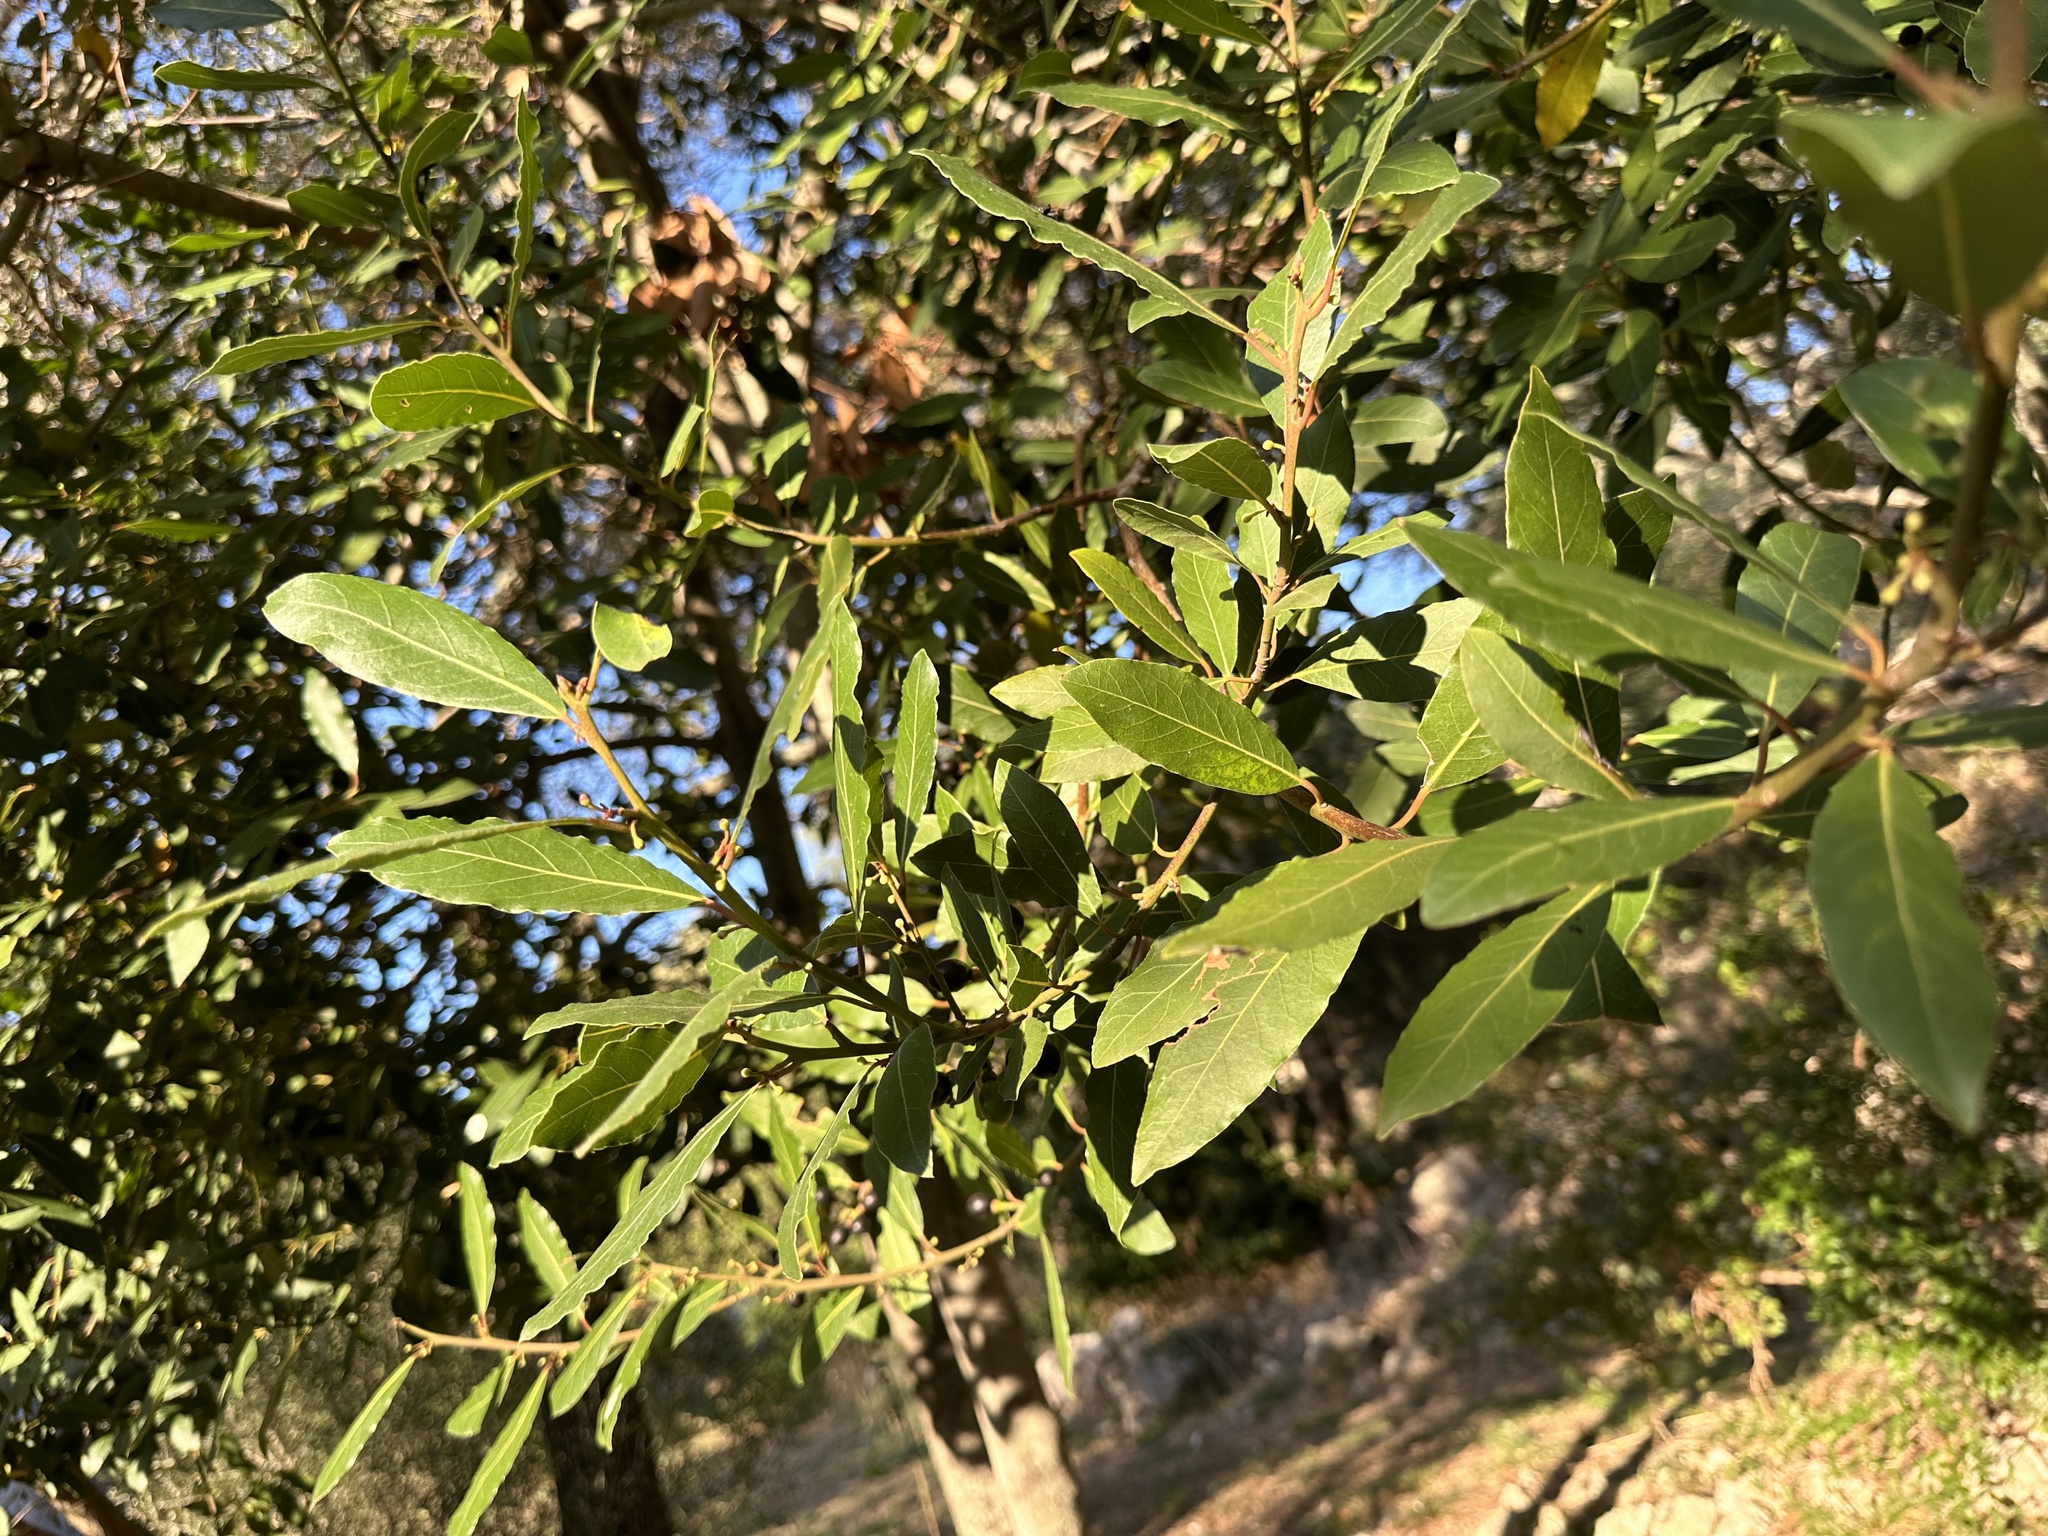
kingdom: Plantae
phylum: Tracheophyta
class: Magnoliopsida
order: Laurales
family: Lauraceae
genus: Laurus
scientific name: Laurus nobilis
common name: Bay
